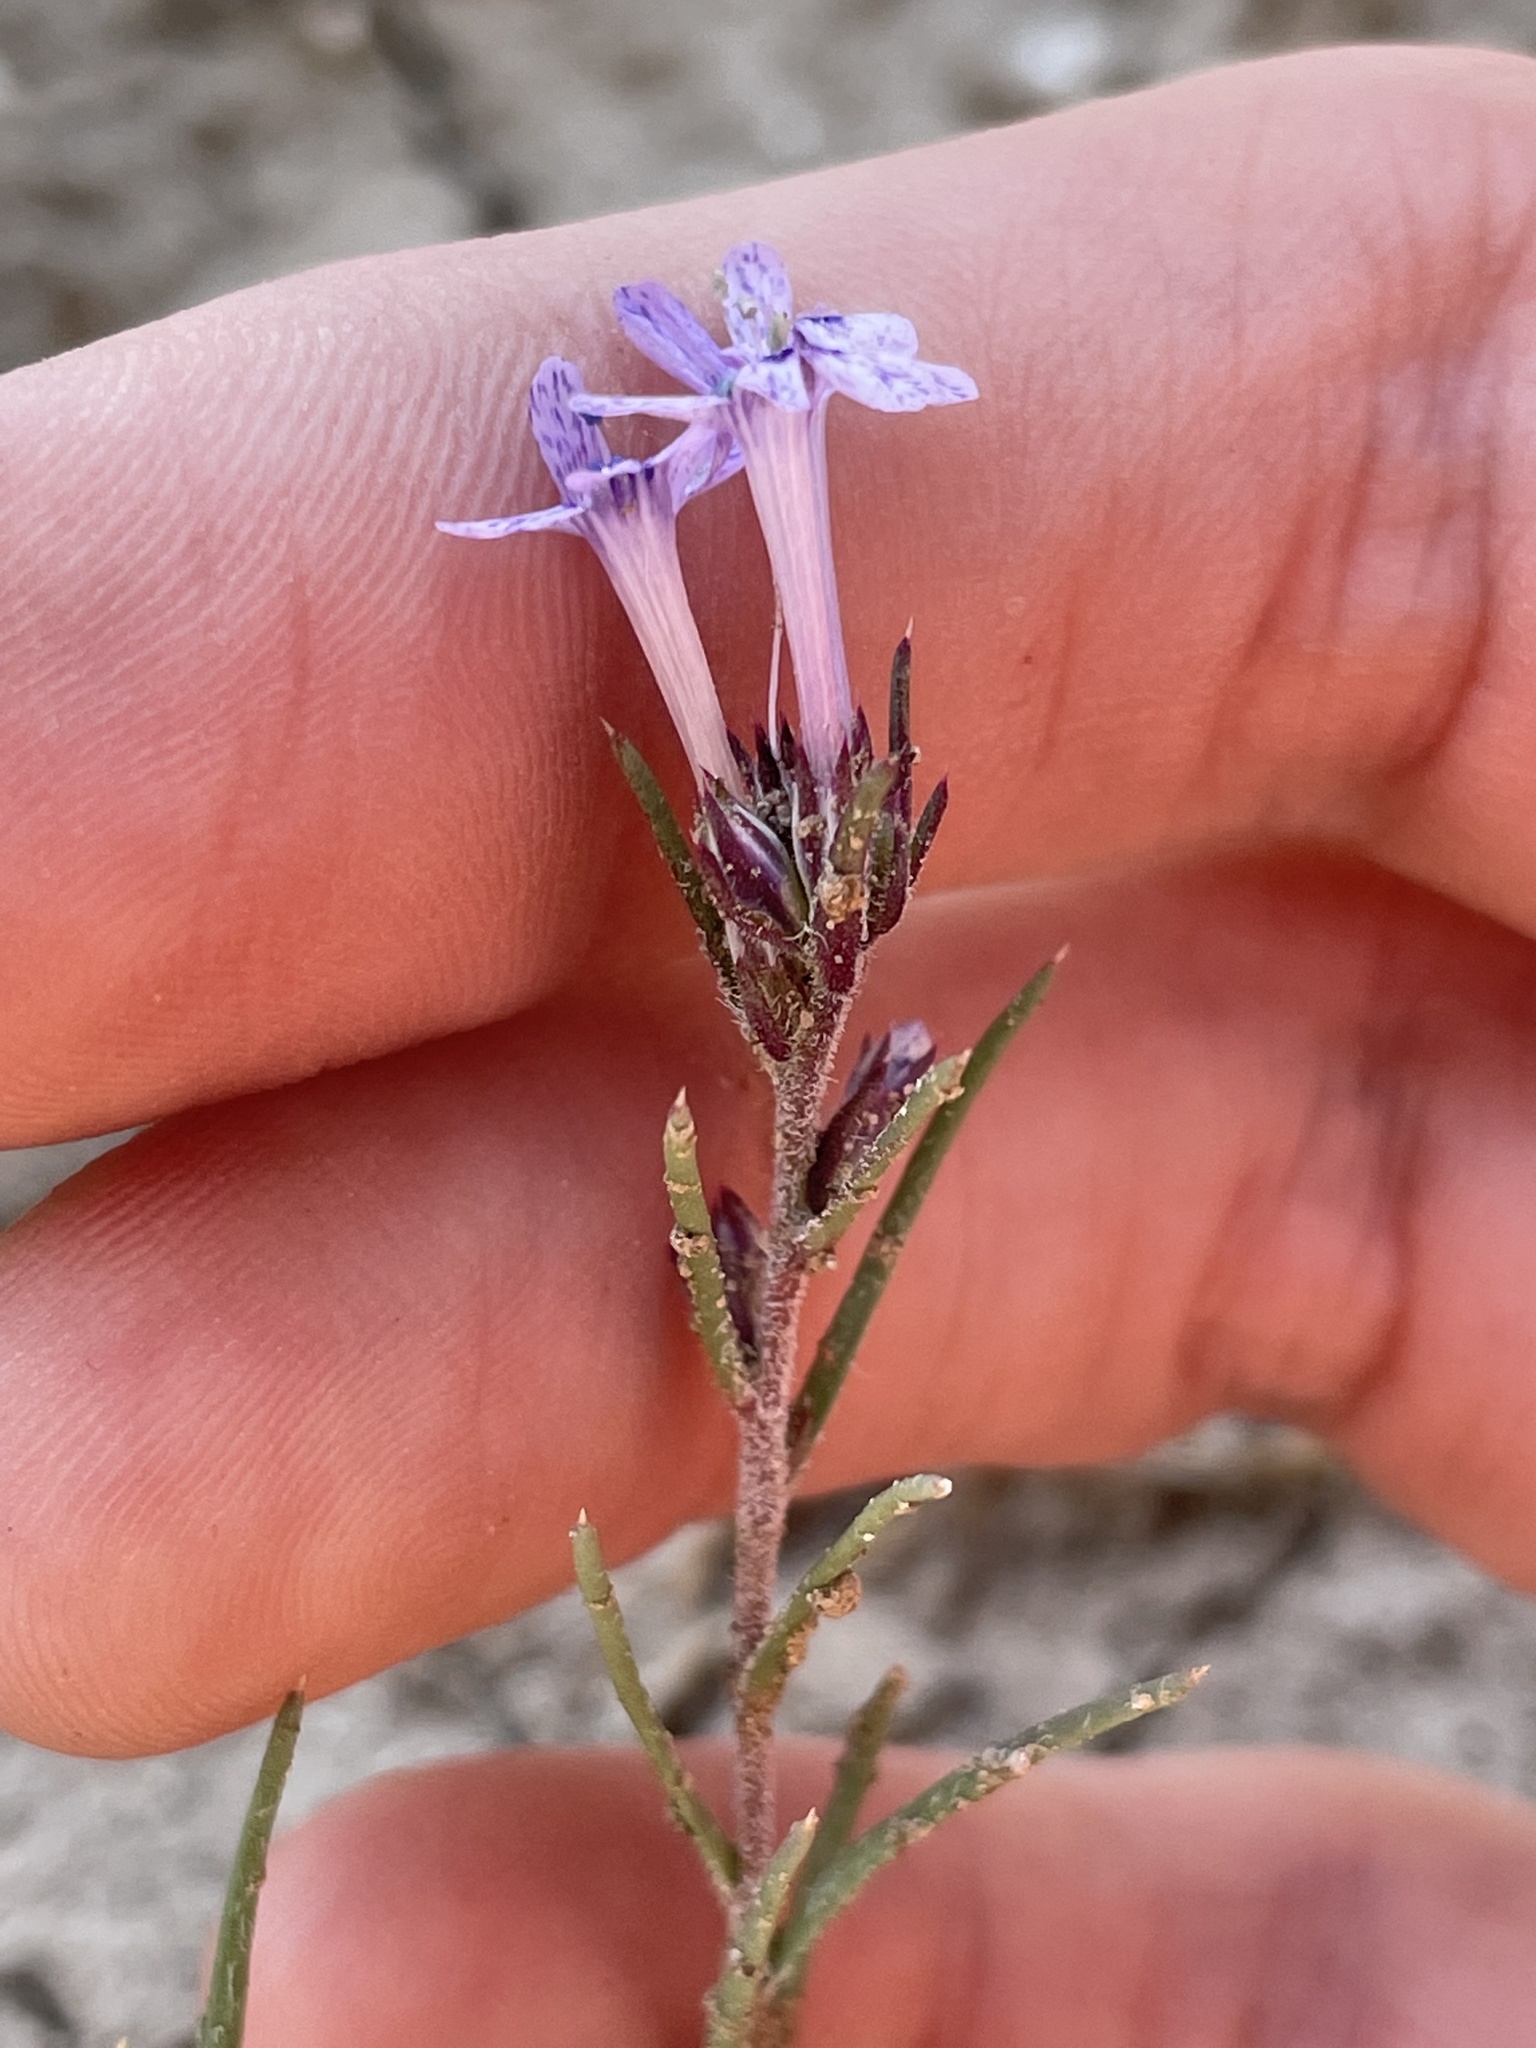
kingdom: Plantae
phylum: Tracheophyta
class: Magnoliopsida
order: Ericales
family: Polemoniaceae
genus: Ipomopsis
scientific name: Ipomopsis multiflora
